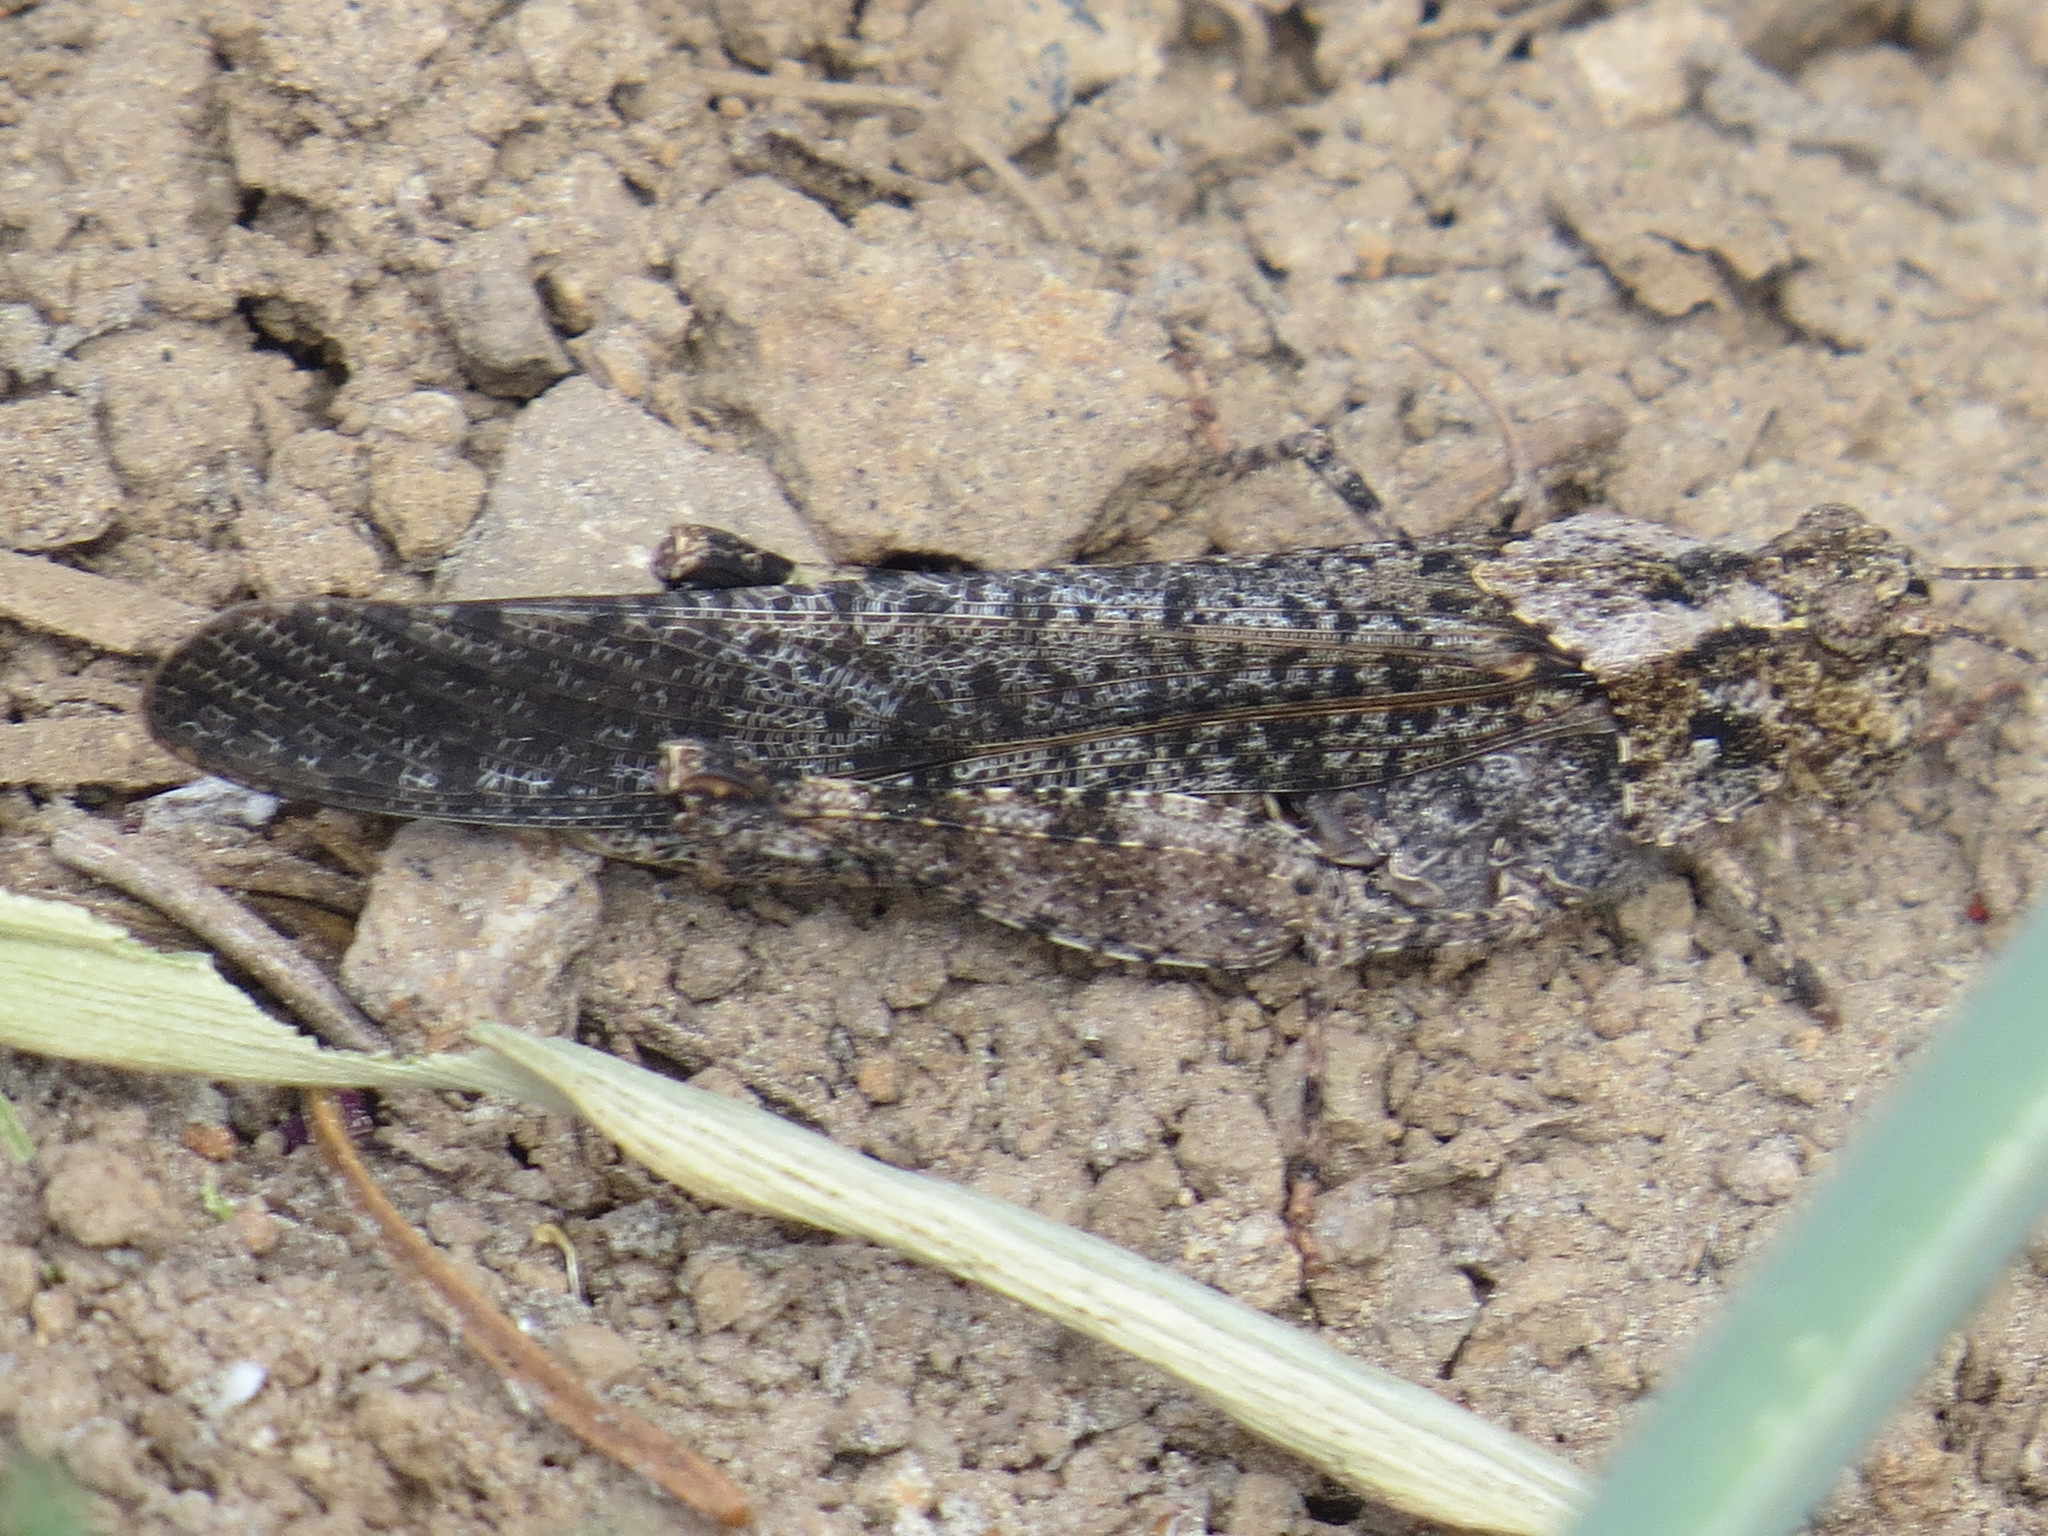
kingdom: Animalia
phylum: Arthropoda
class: Insecta
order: Orthoptera
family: Acrididae
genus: Trimerotropis
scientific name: Trimerotropis verruculata
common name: Crackling forest grasshopper
